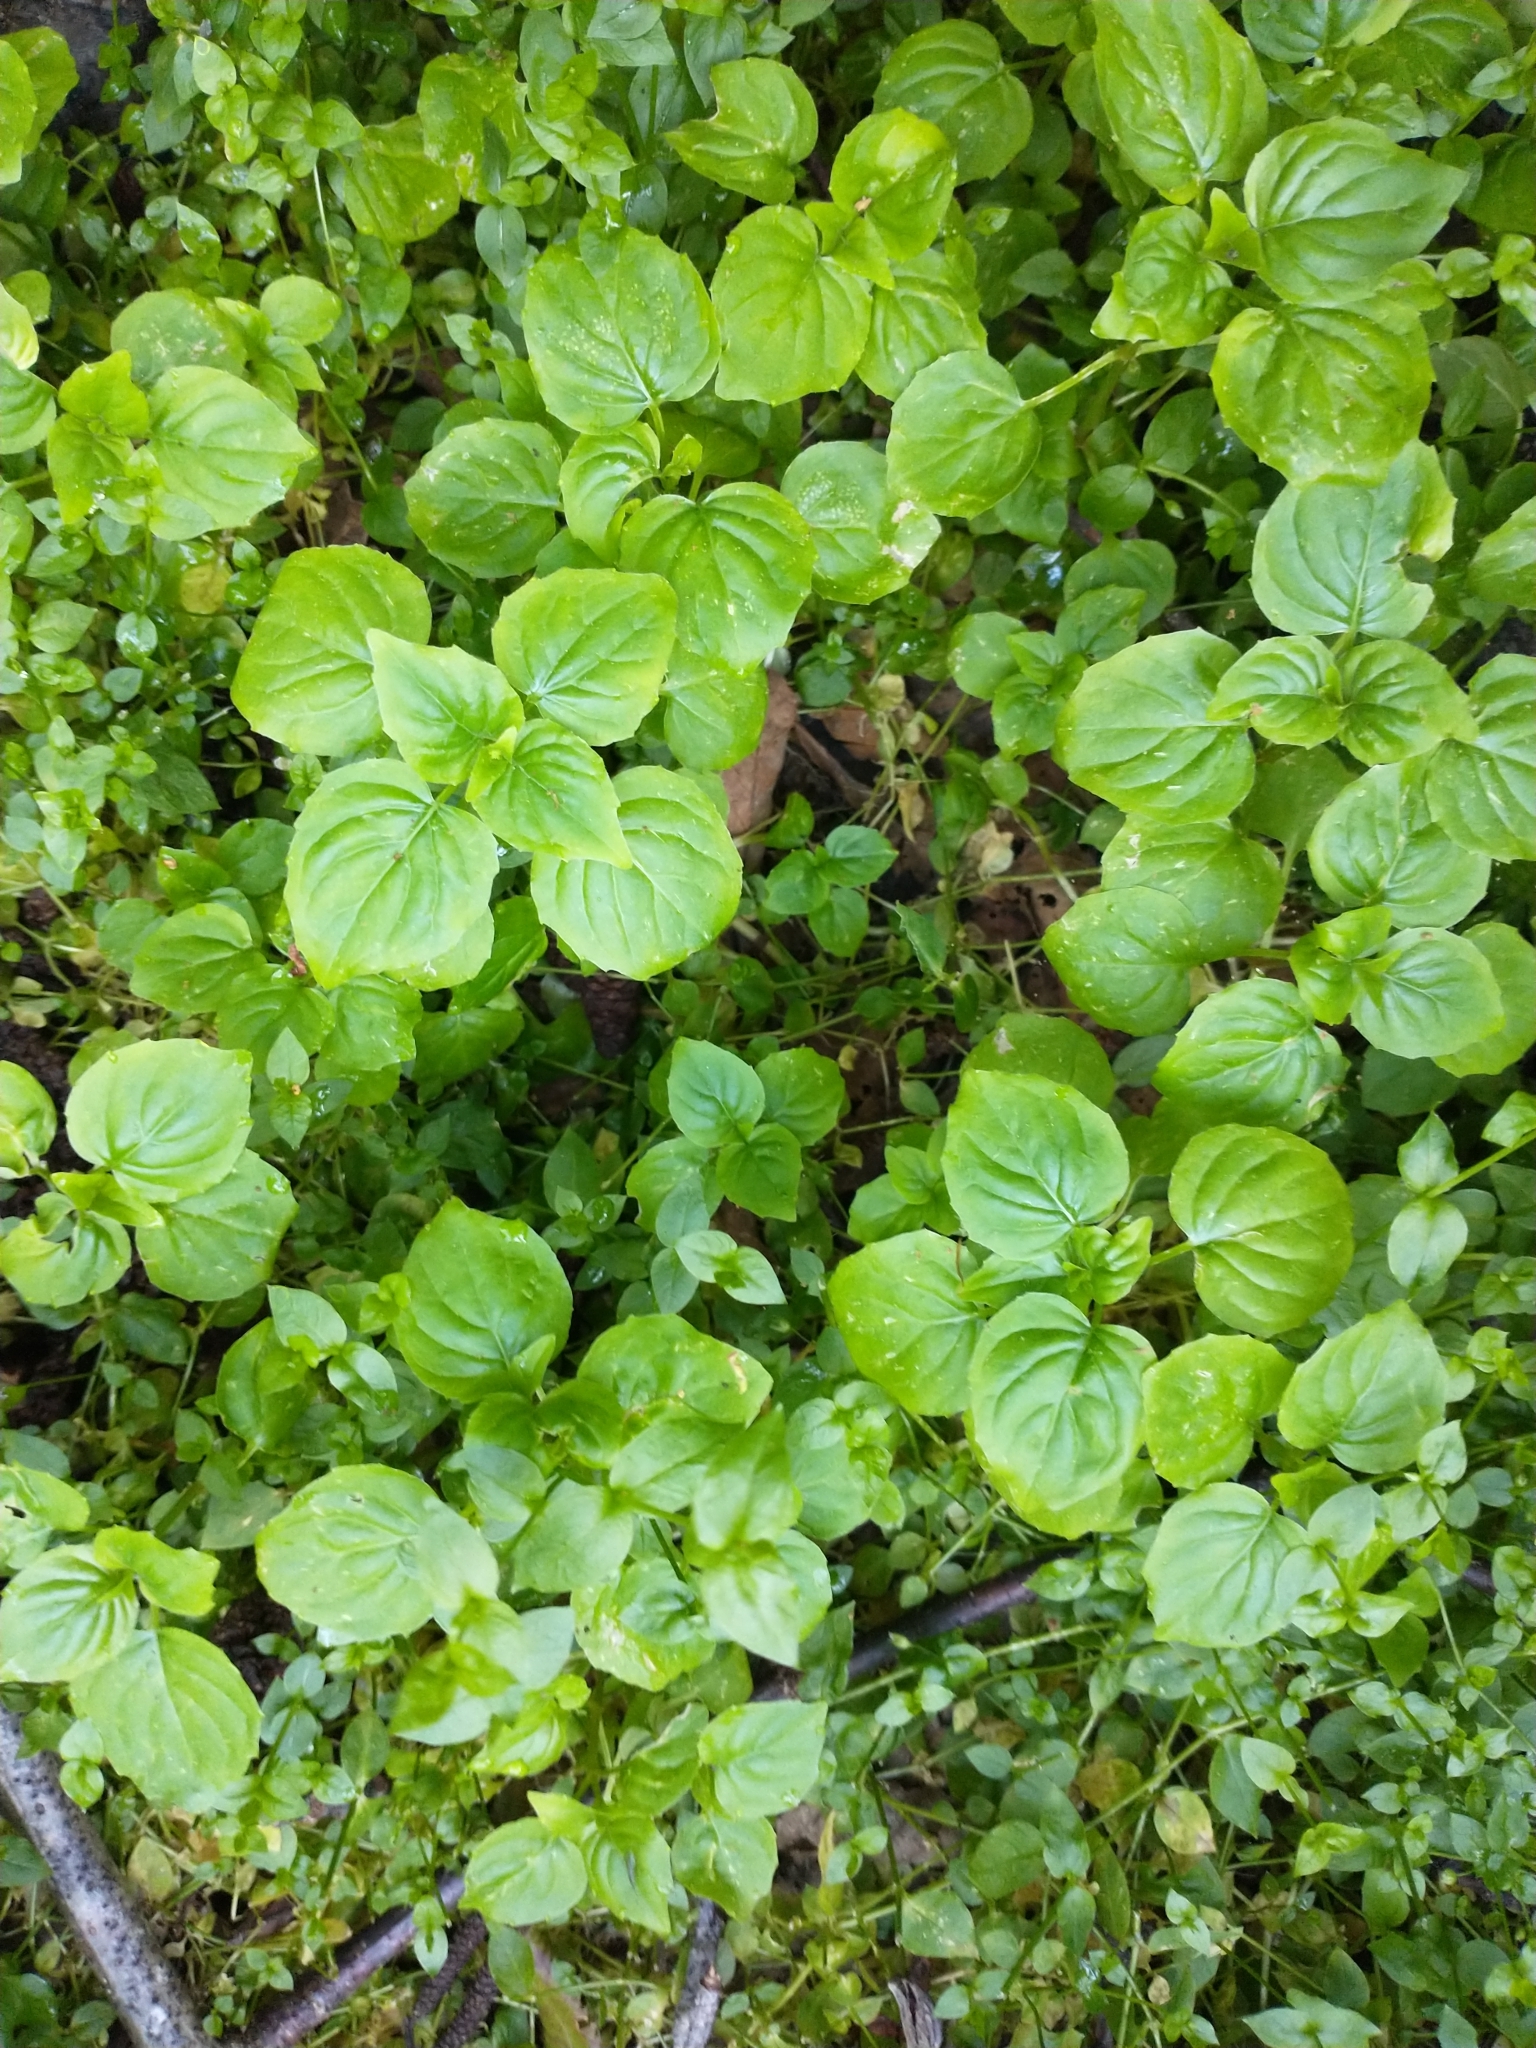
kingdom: Plantae
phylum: Tracheophyta
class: Magnoliopsida
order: Myrtales
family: Onagraceae
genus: Circaea
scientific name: Circaea alpina
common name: Alpine enchanter's-nightshade
